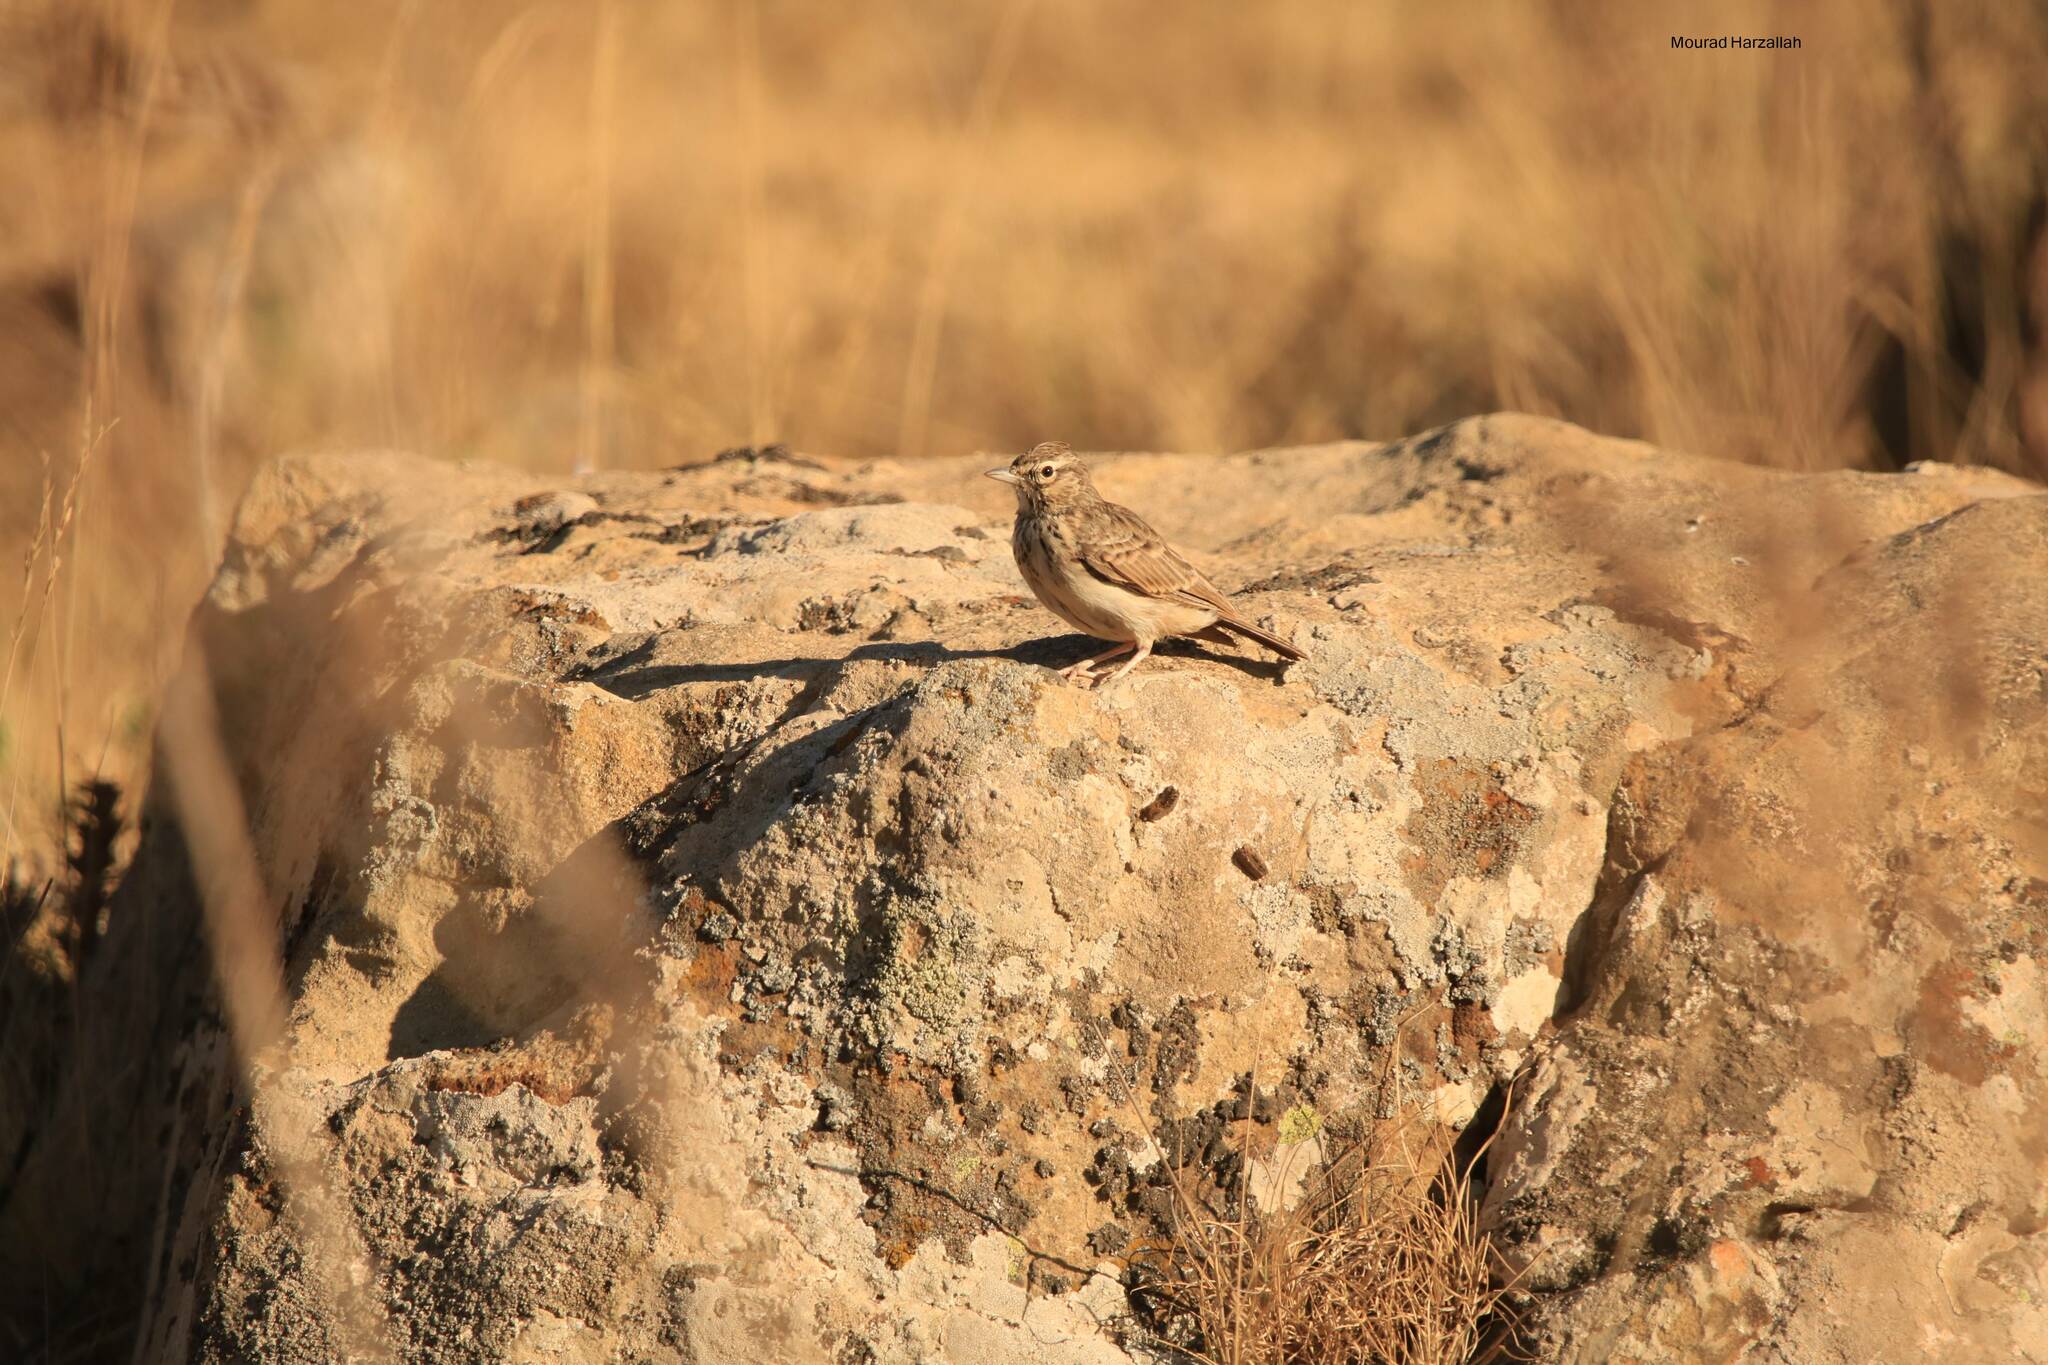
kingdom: Animalia
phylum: Chordata
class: Aves
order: Passeriformes
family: Alaudidae
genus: Galerida
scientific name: Galerida theklae
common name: Thekla lark
